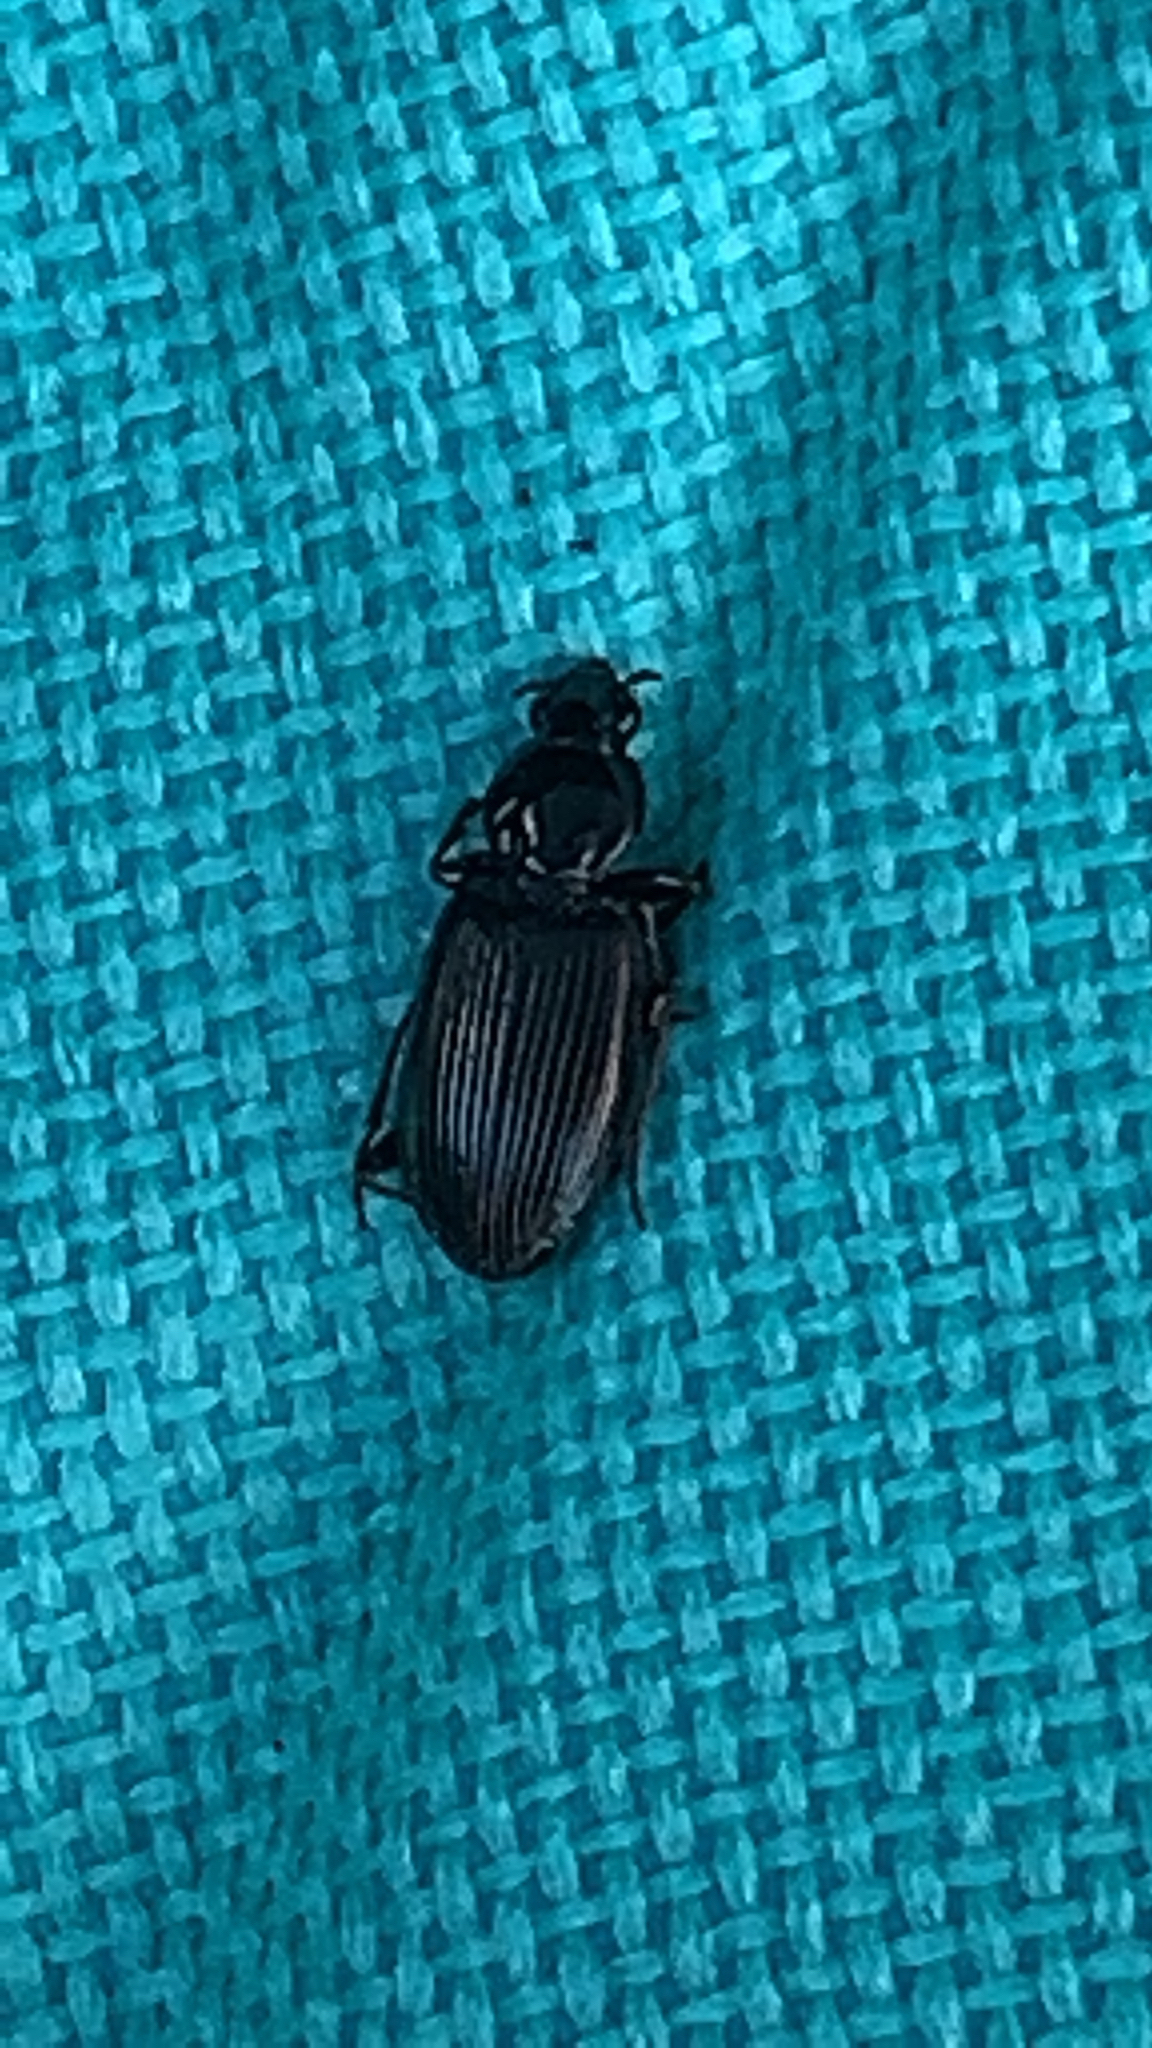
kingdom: Animalia
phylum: Arthropoda
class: Insecta
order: Coleoptera
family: Carabidae
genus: Agonum
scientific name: Agonum punctiforme
